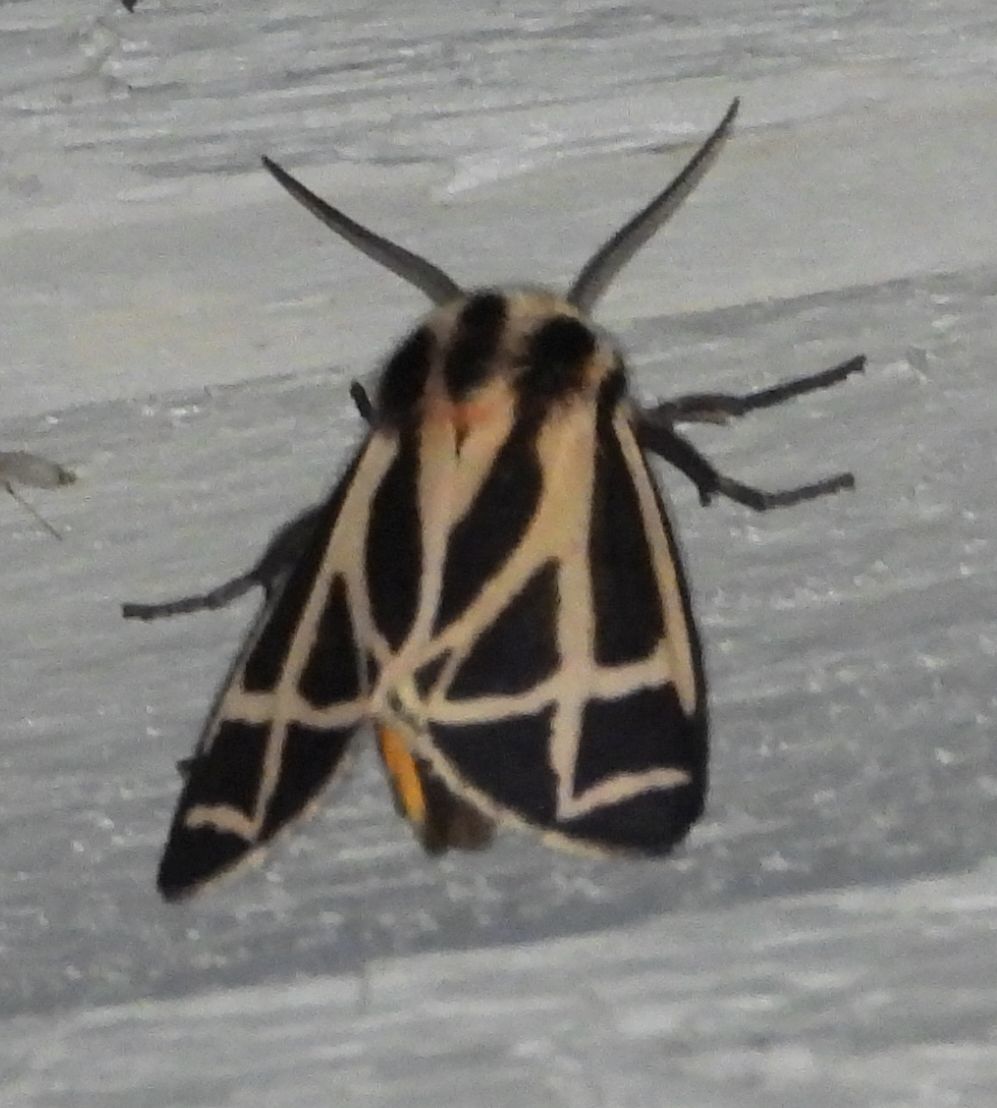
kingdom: Animalia
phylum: Arthropoda
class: Insecta
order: Lepidoptera
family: Erebidae
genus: Apantesis
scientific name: Apantesis phalerata
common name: Harnessed tiger moth
